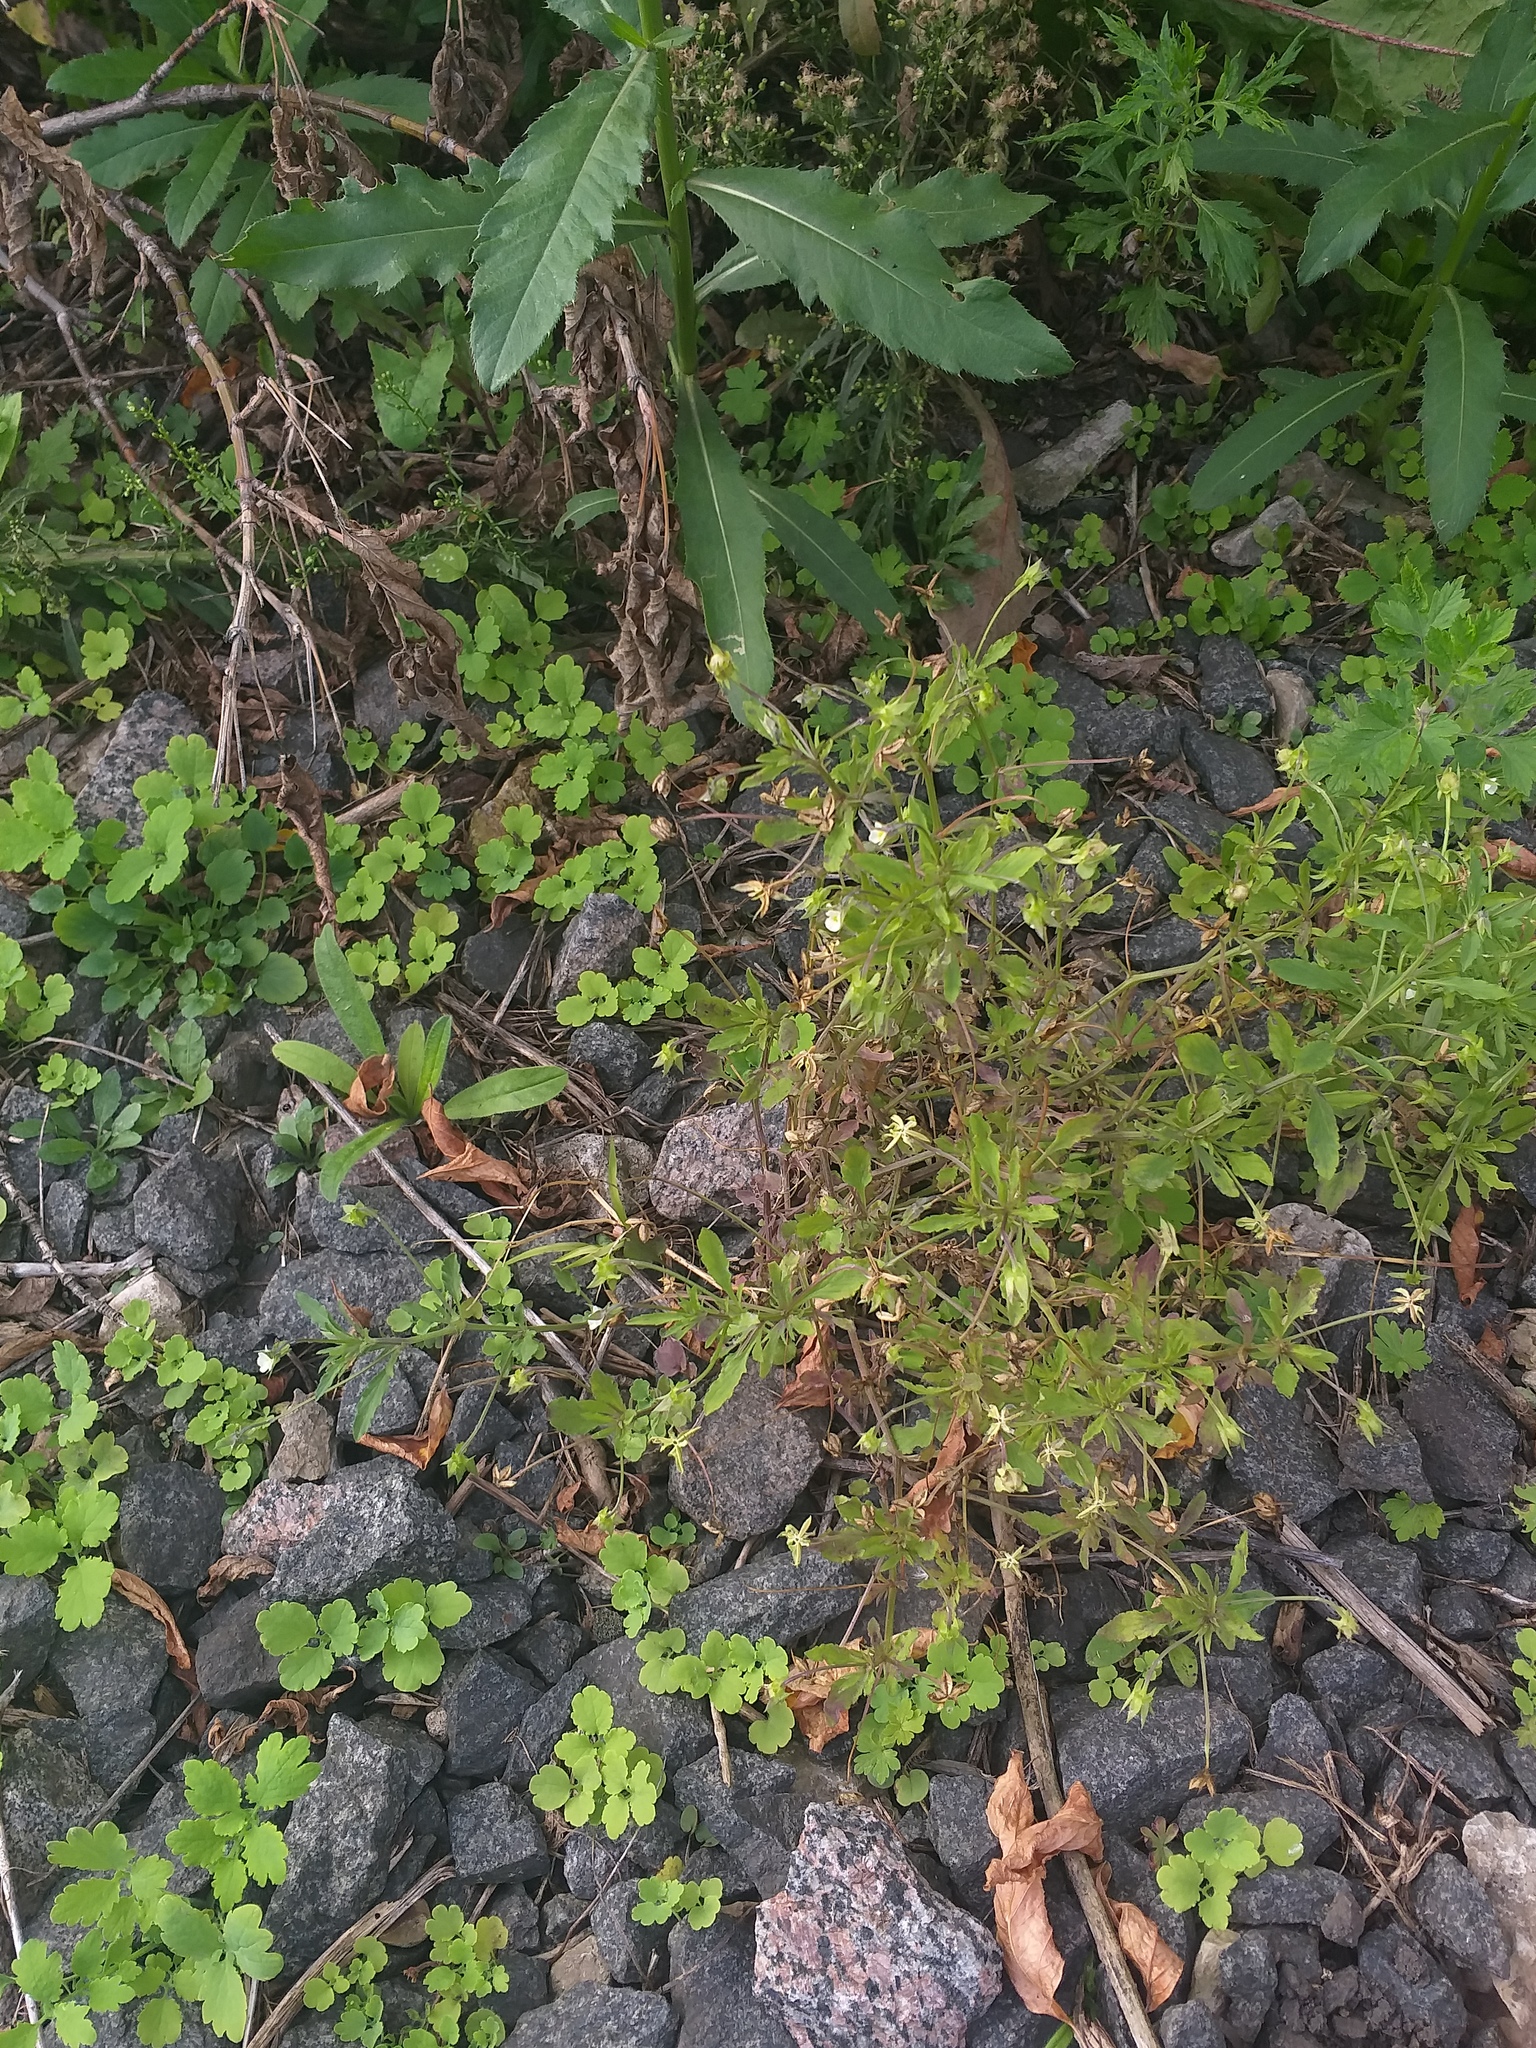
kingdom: Plantae
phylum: Tracheophyta
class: Magnoliopsida
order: Malpighiales
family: Violaceae
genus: Viola
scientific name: Viola arvensis
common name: Field pansy
